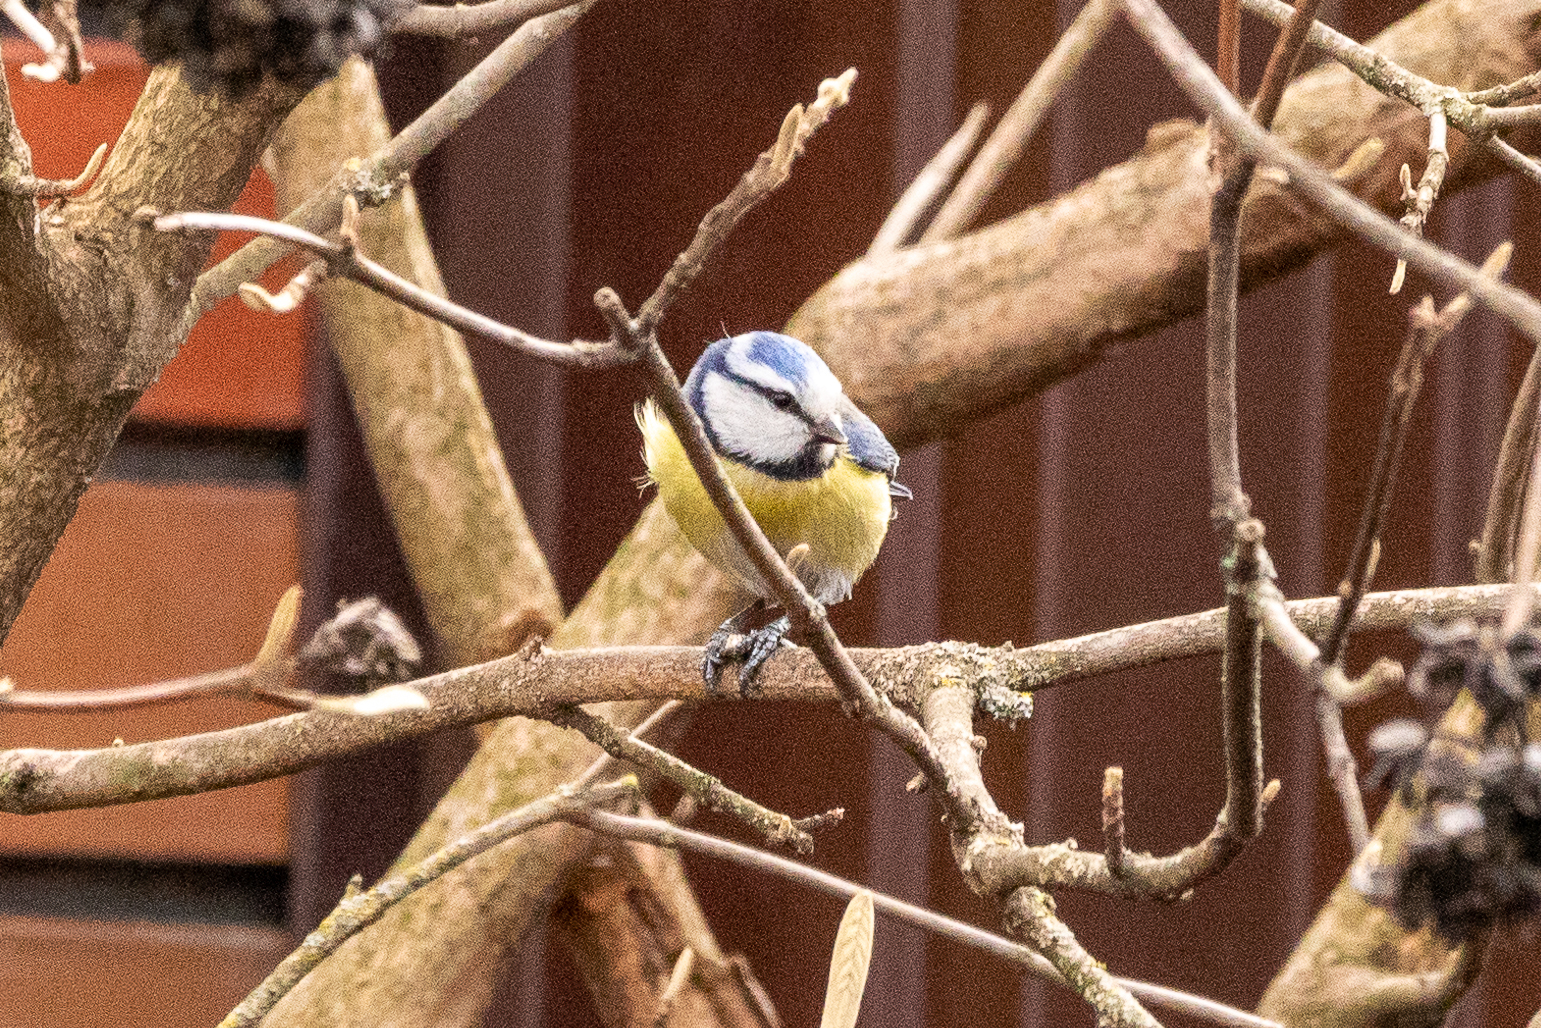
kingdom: Animalia
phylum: Chordata
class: Aves
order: Passeriformes
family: Paridae
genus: Cyanistes
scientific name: Cyanistes caeruleus
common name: Eurasian blue tit
